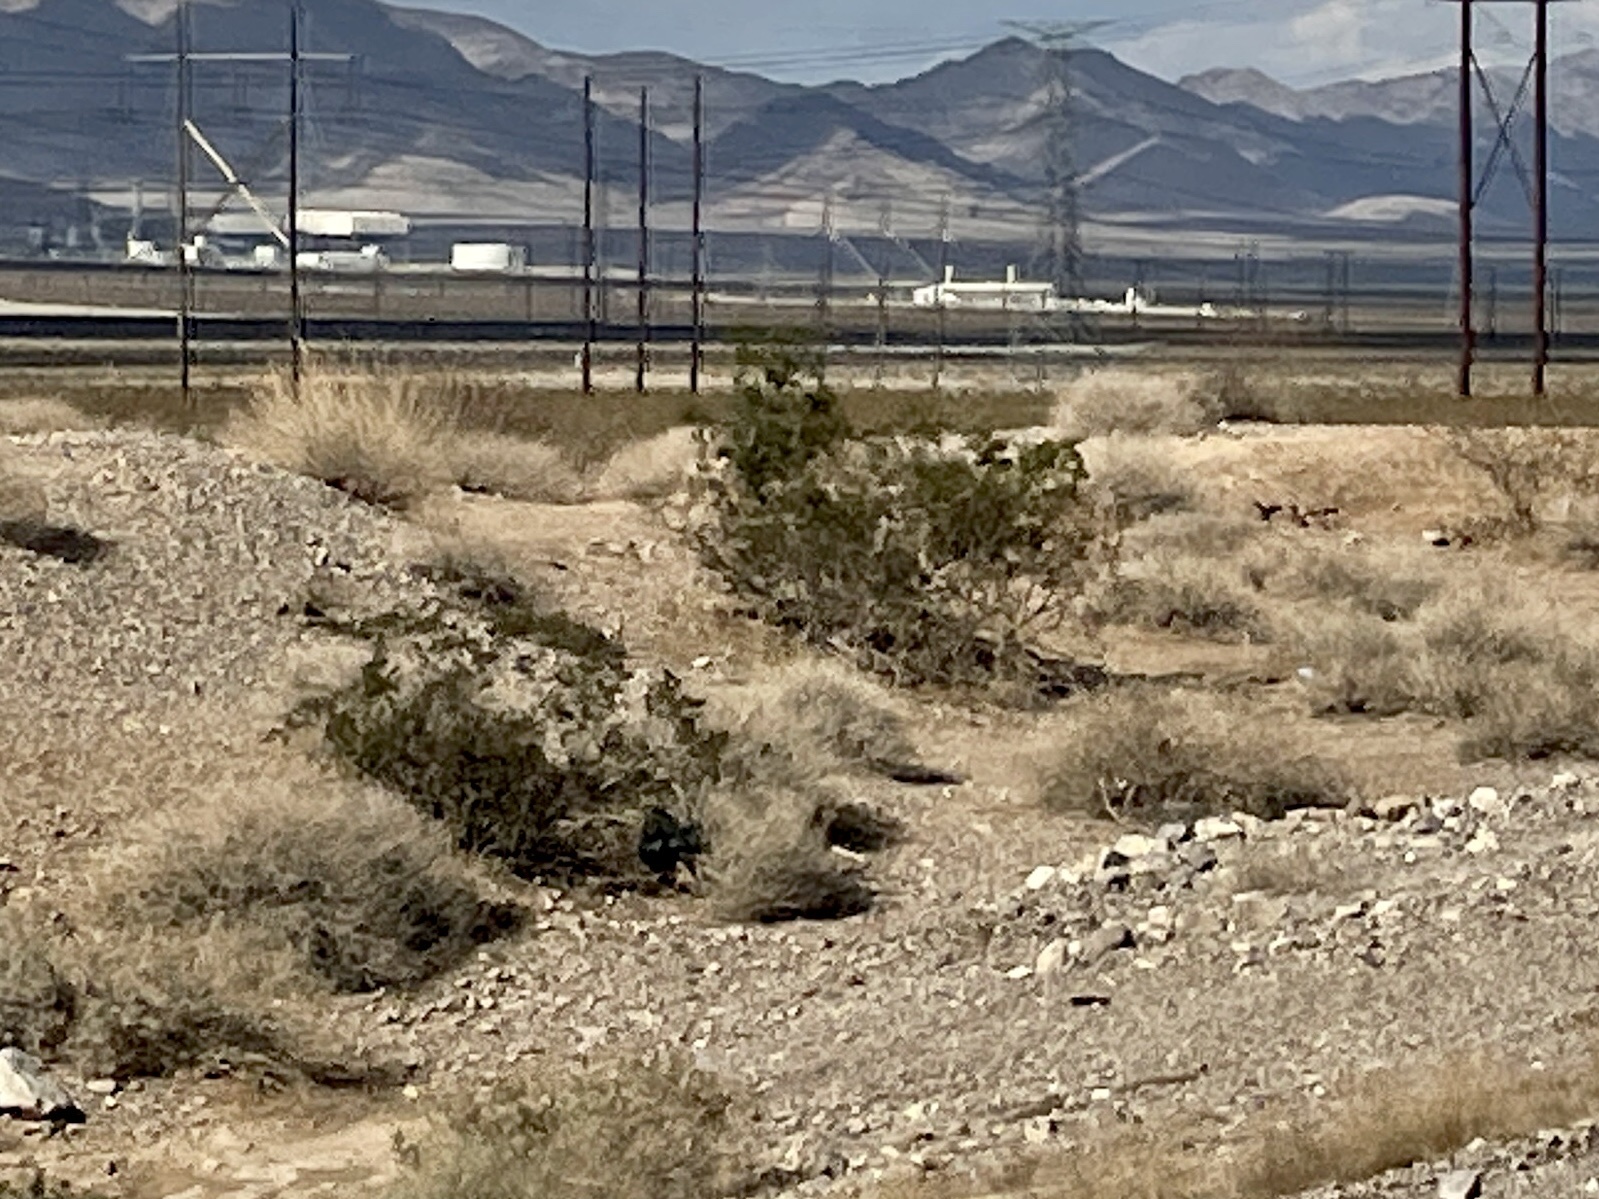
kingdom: Plantae
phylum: Tracheophyta
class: Magnoliopsida
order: Zygophyllales
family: Zygophyllaceae
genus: Larrea
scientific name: Larrea tridentata
